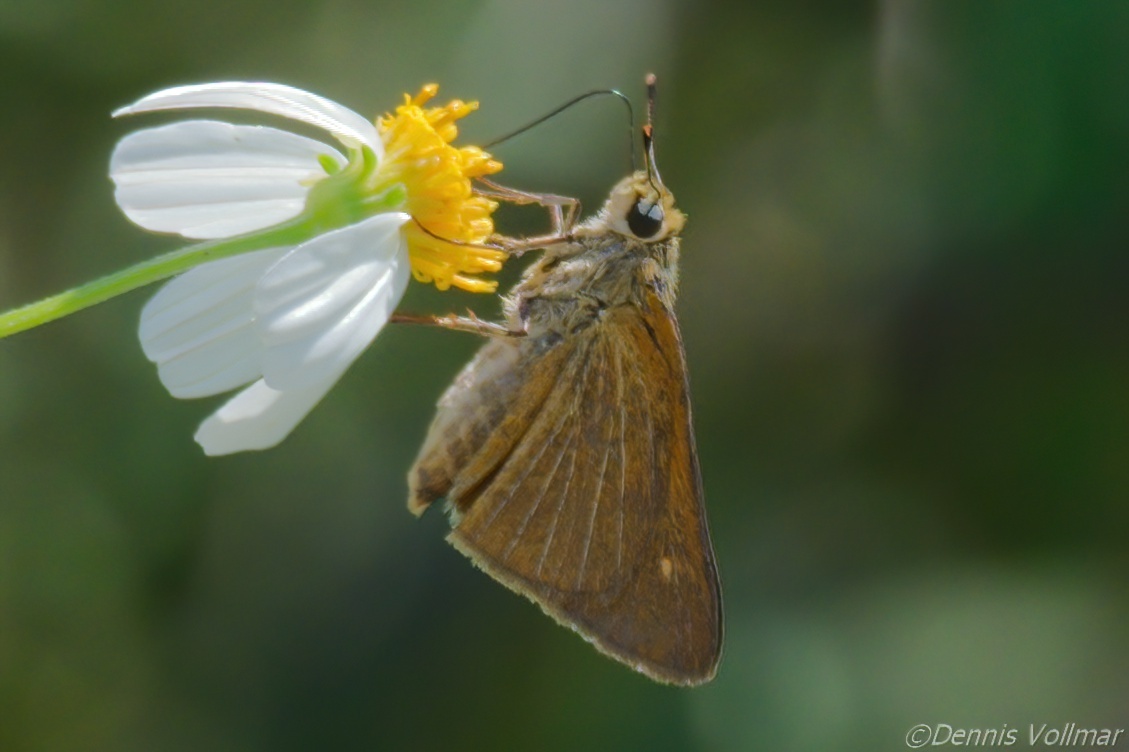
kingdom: Animalia
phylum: Arthropoda
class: Insecta
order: Lepidoptera
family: Hesperiidae
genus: Euphyes
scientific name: Euphyes berryi
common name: Berry's skipper
